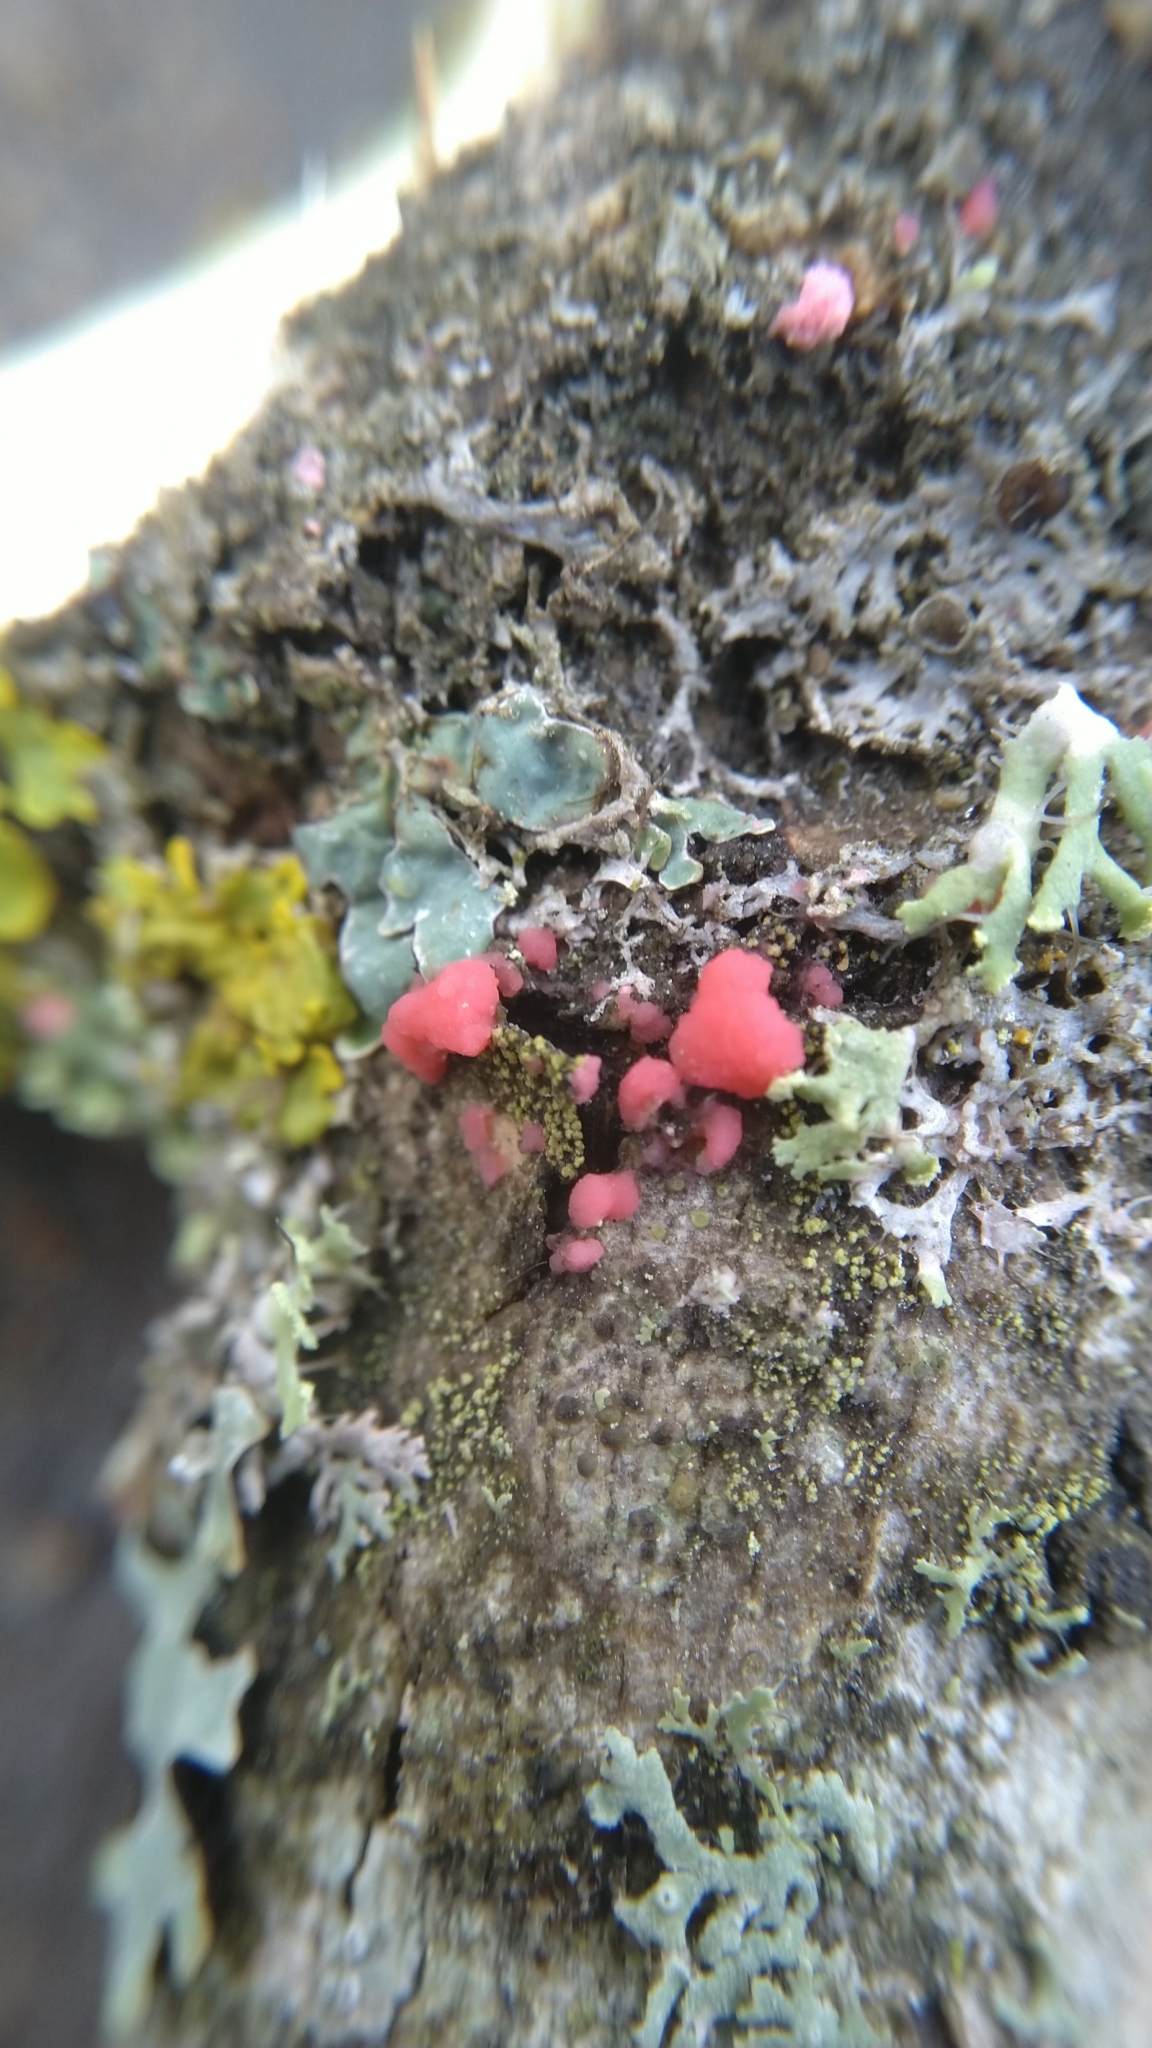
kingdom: Fungi
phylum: Ascomycota
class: Sordariomycetes
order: Hypocreales
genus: Illosporiopsis
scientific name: Illosporiopsis christiansenii
